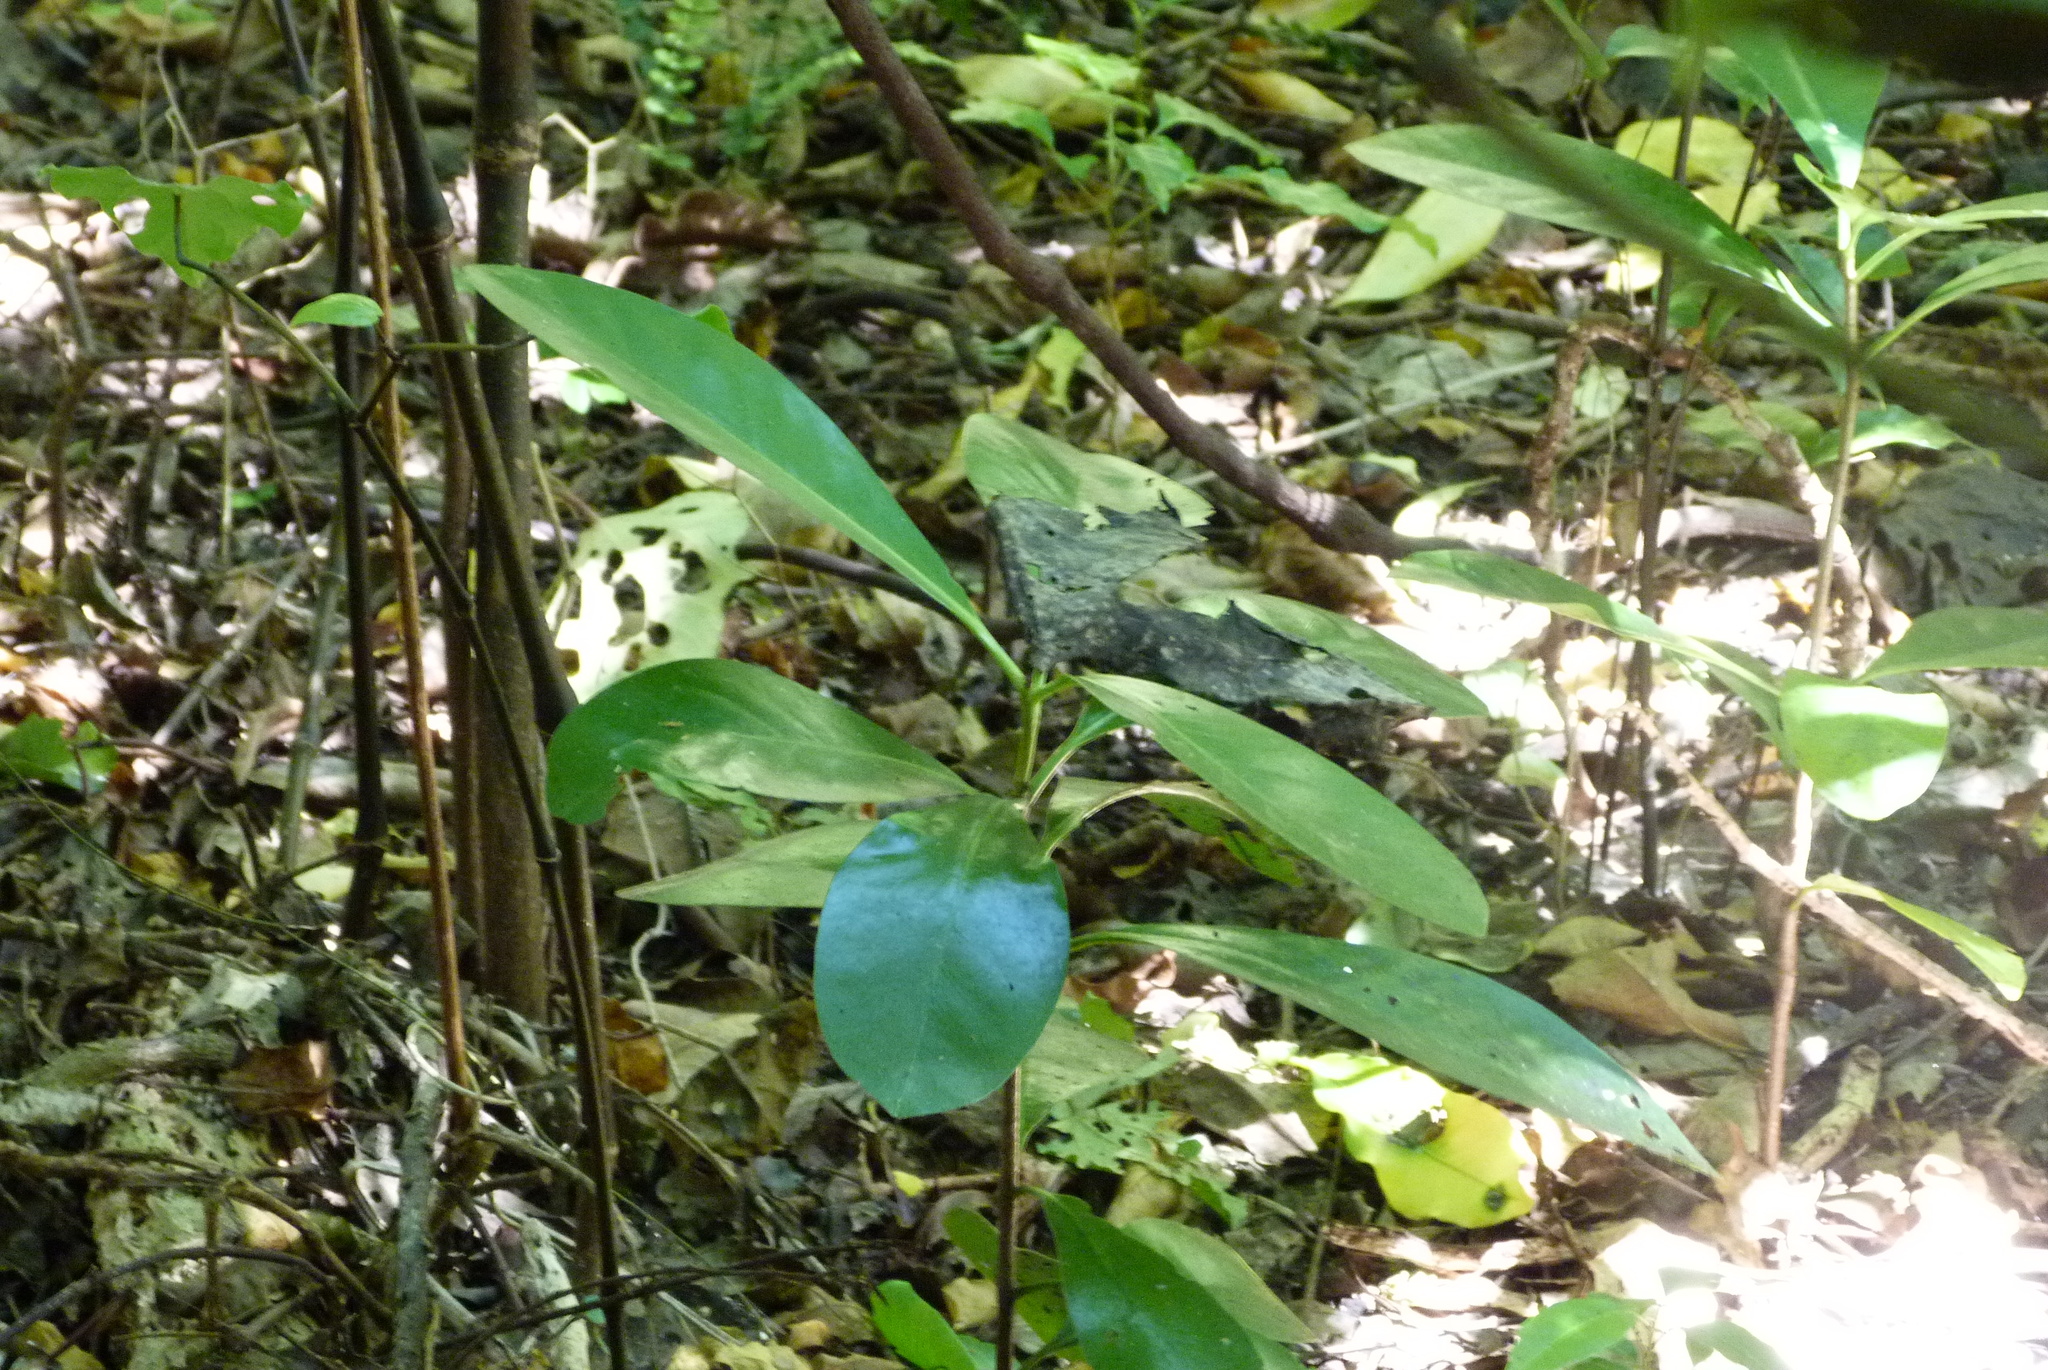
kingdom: Plantae
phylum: Tracheophyta
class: Magnoliopsida
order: Cucurbitales
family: Corynocarpaceae
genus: Corynocarpus
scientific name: Corynocarpus laevigatus
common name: New zealand laurel
